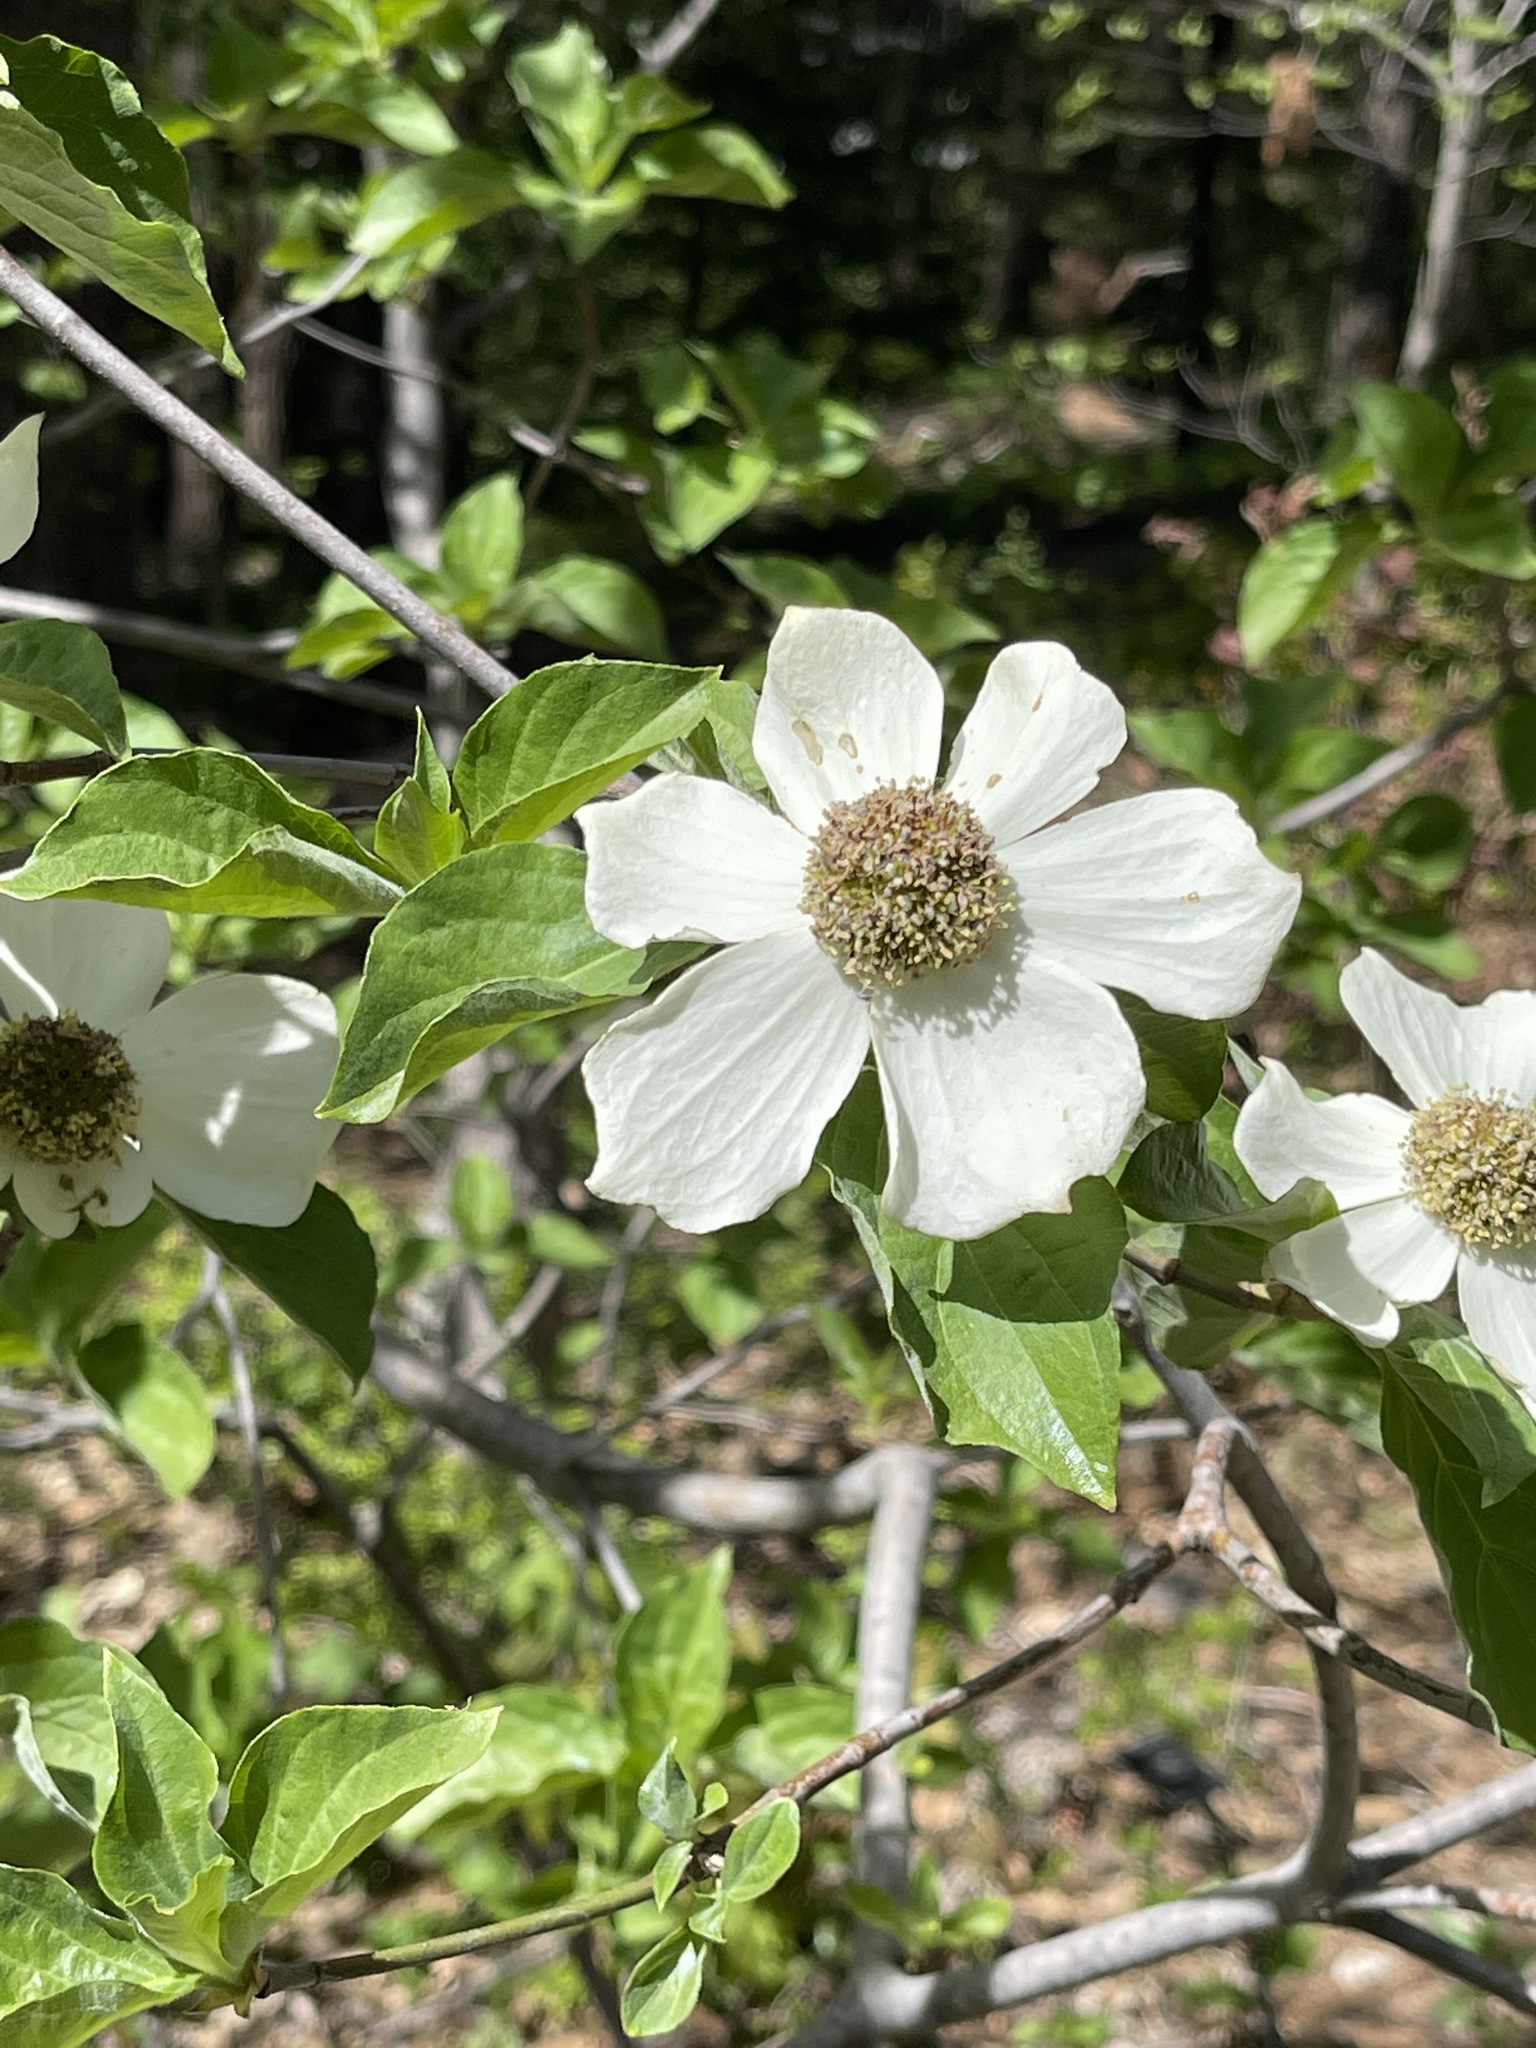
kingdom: Plantae
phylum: Tracheophyta
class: Magnoliopsida
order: Cornales
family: Cornaceae
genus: Cornus
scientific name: Cornus nuttallii
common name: Pacific dogwood
